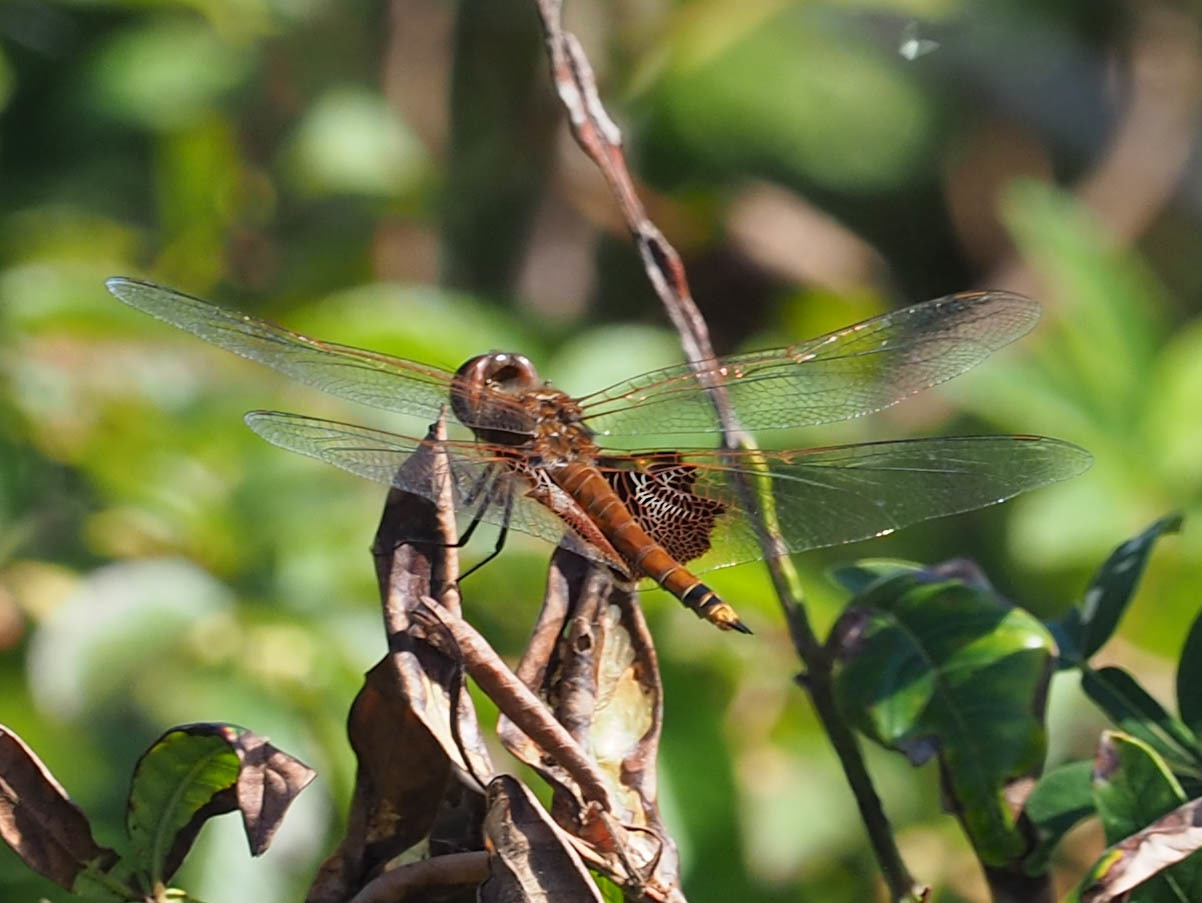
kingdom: Animalia
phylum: Arthropoda
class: Insecta
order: Odonata
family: Libellulidae
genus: Tramea
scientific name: Tramea carolina
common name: Carolina saddlebags
